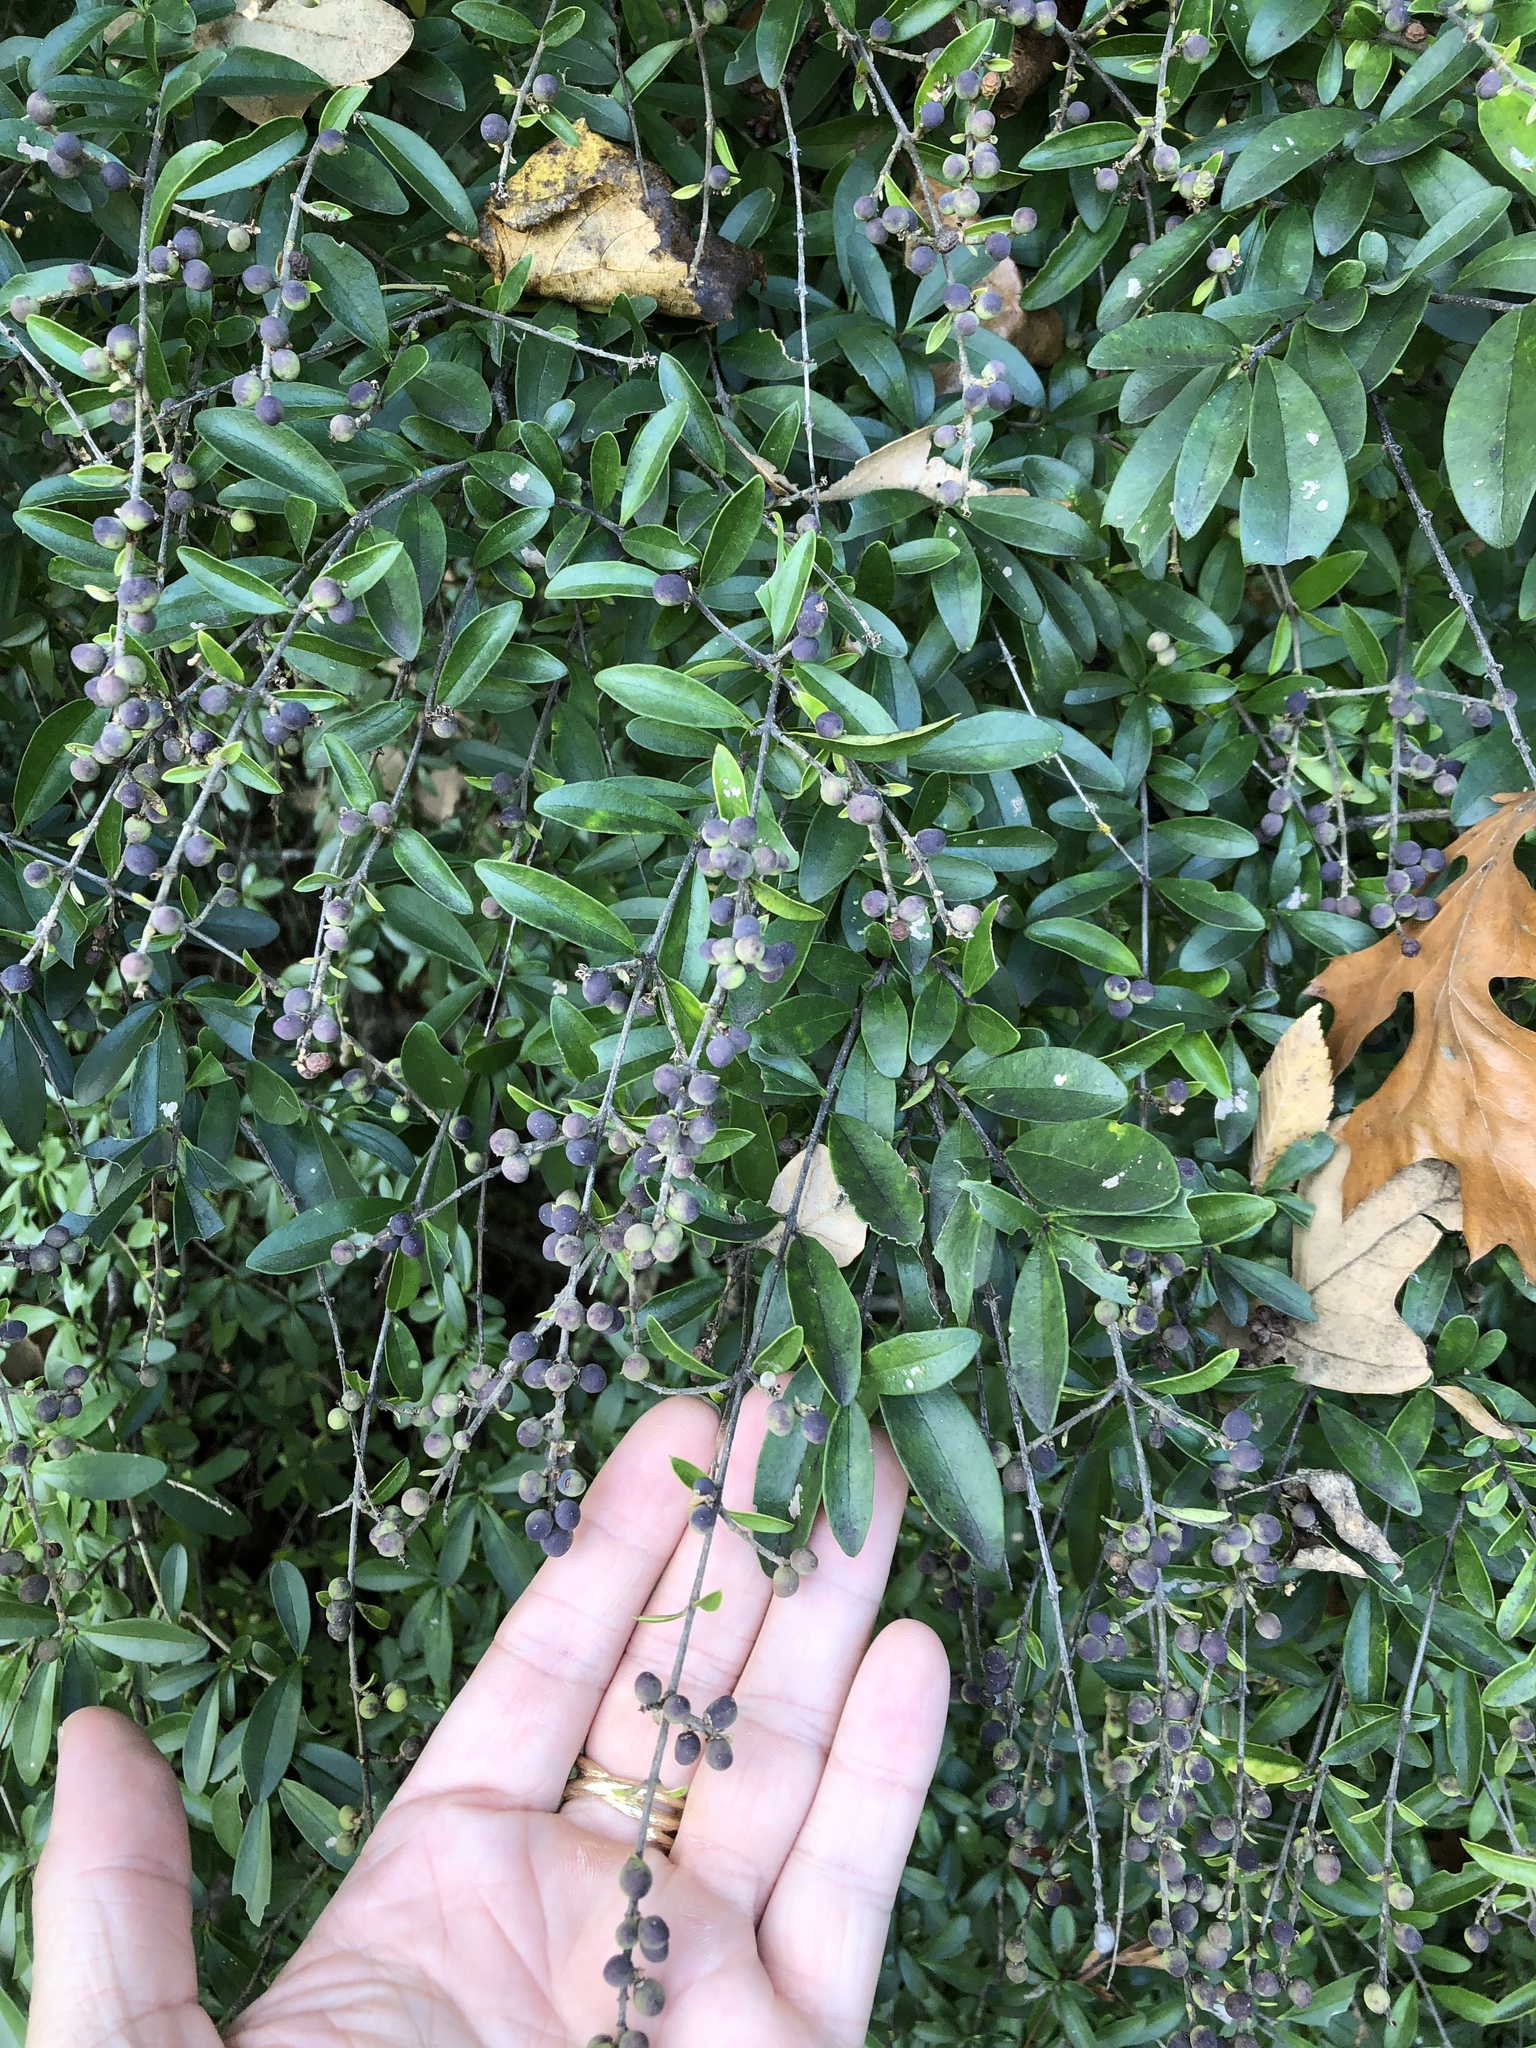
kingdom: Plantae
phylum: Tracheophyta
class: Magnoliopsida
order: Lamiales
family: Oleaceae
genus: Ligustrum
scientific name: Ligustrum quihoui
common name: Waxyleaf privet
